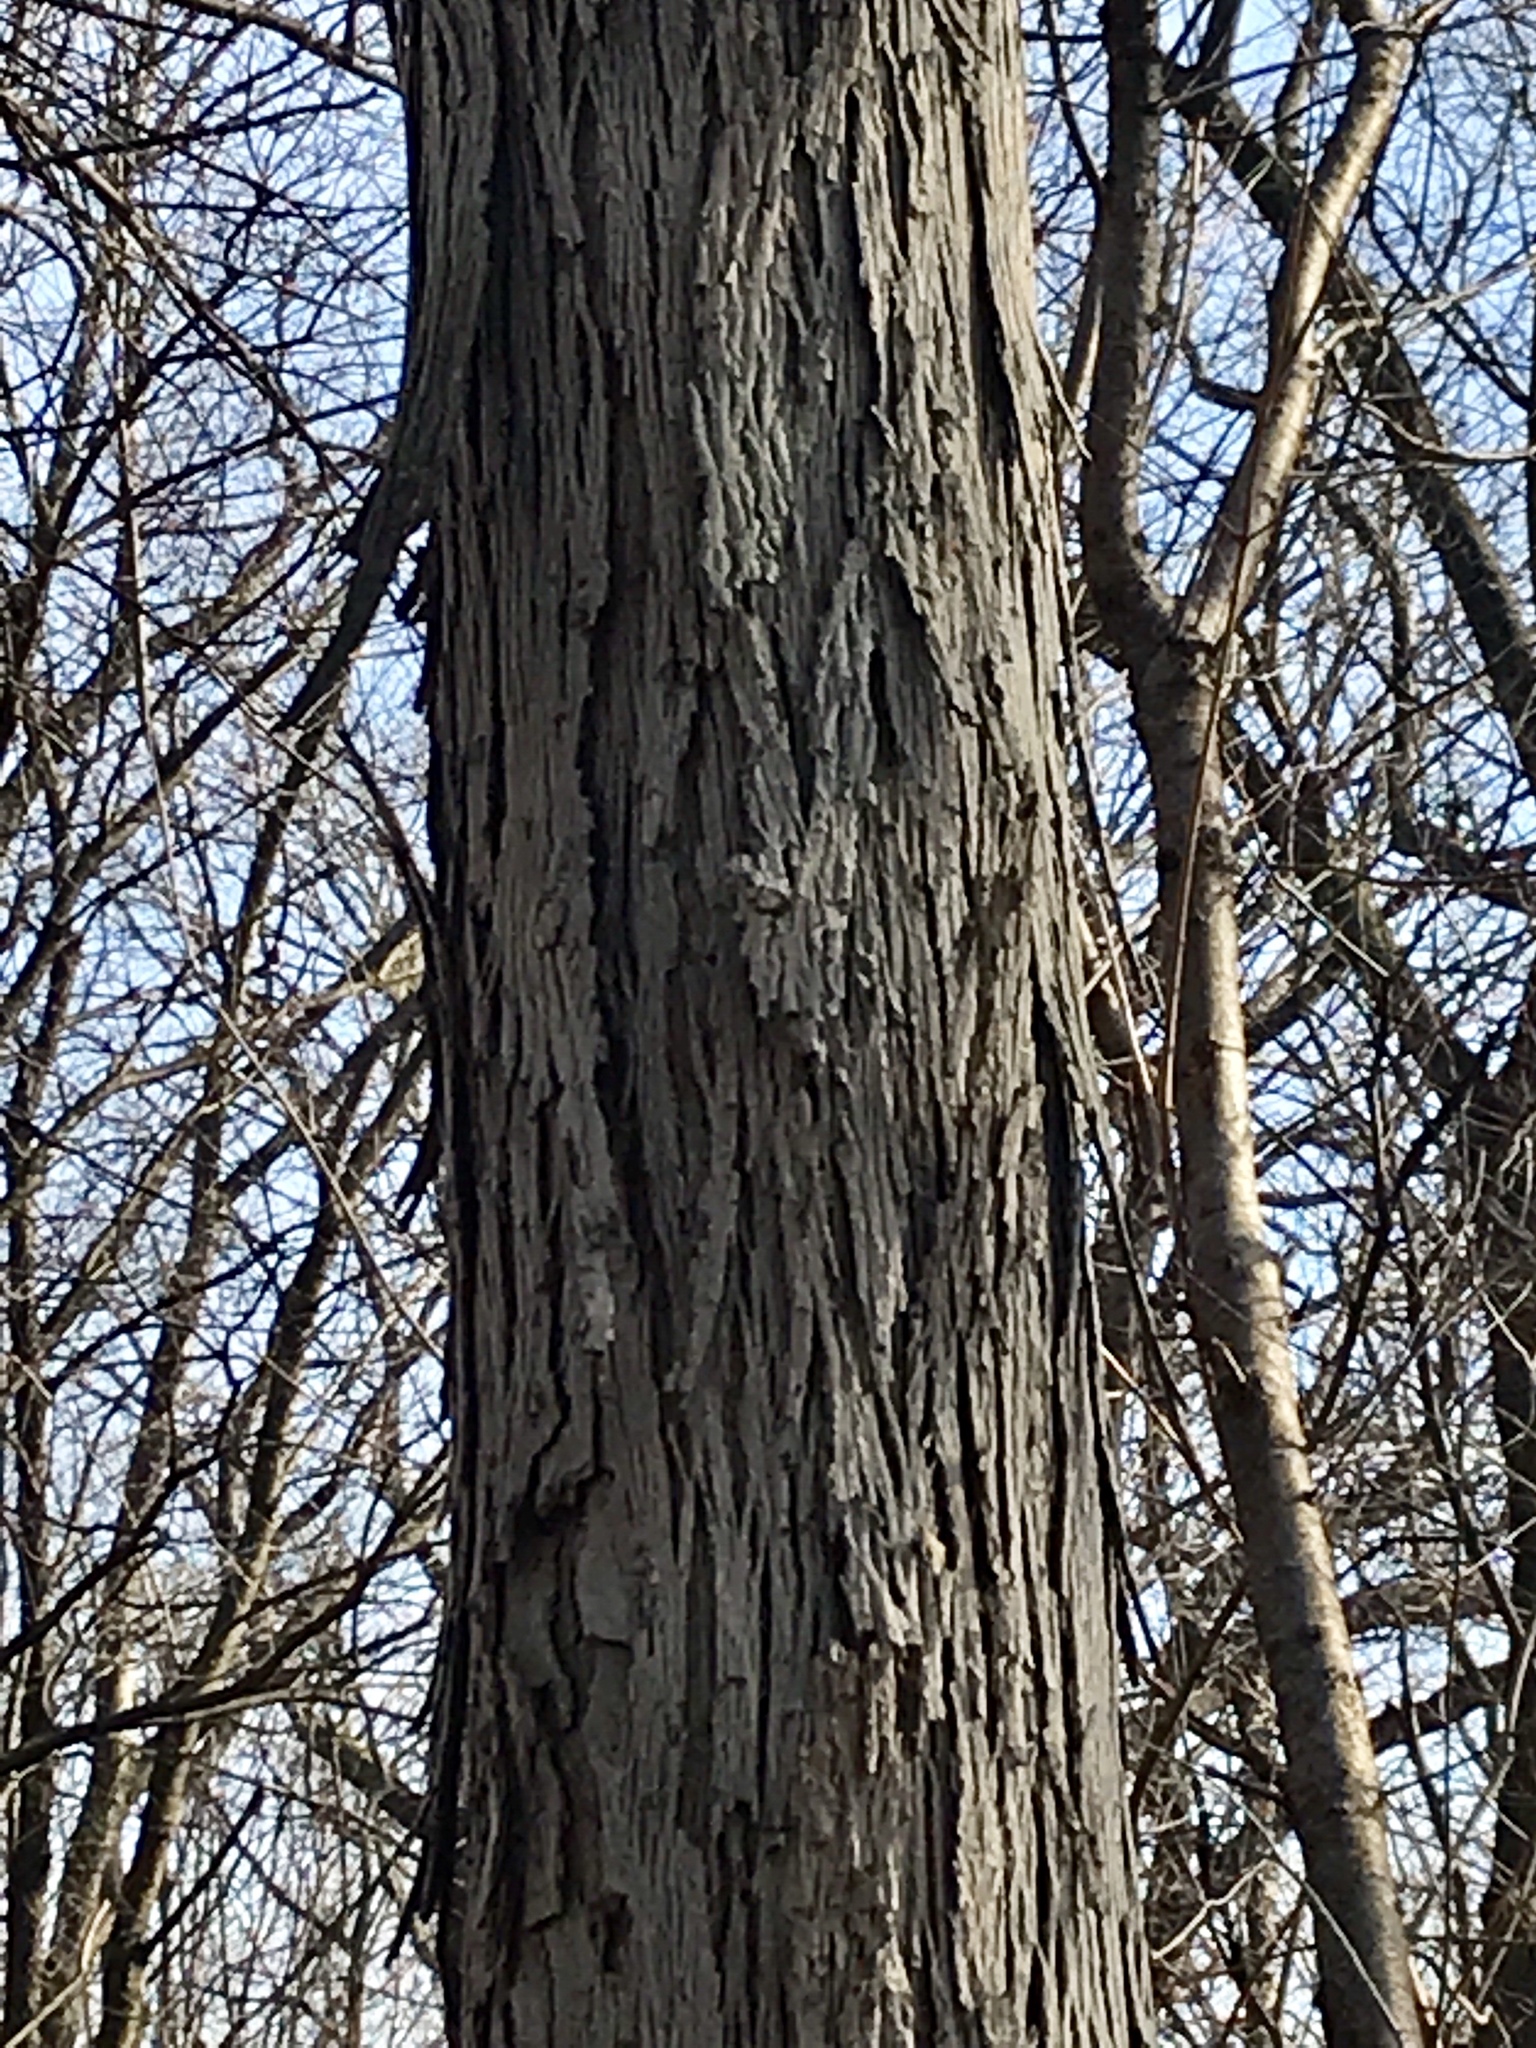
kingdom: Plantae
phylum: Tracheophyta
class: Magnoliopsida
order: Fagales
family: Juglandaceae
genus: Carya
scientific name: Carya ovata
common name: Shagbark hickory
